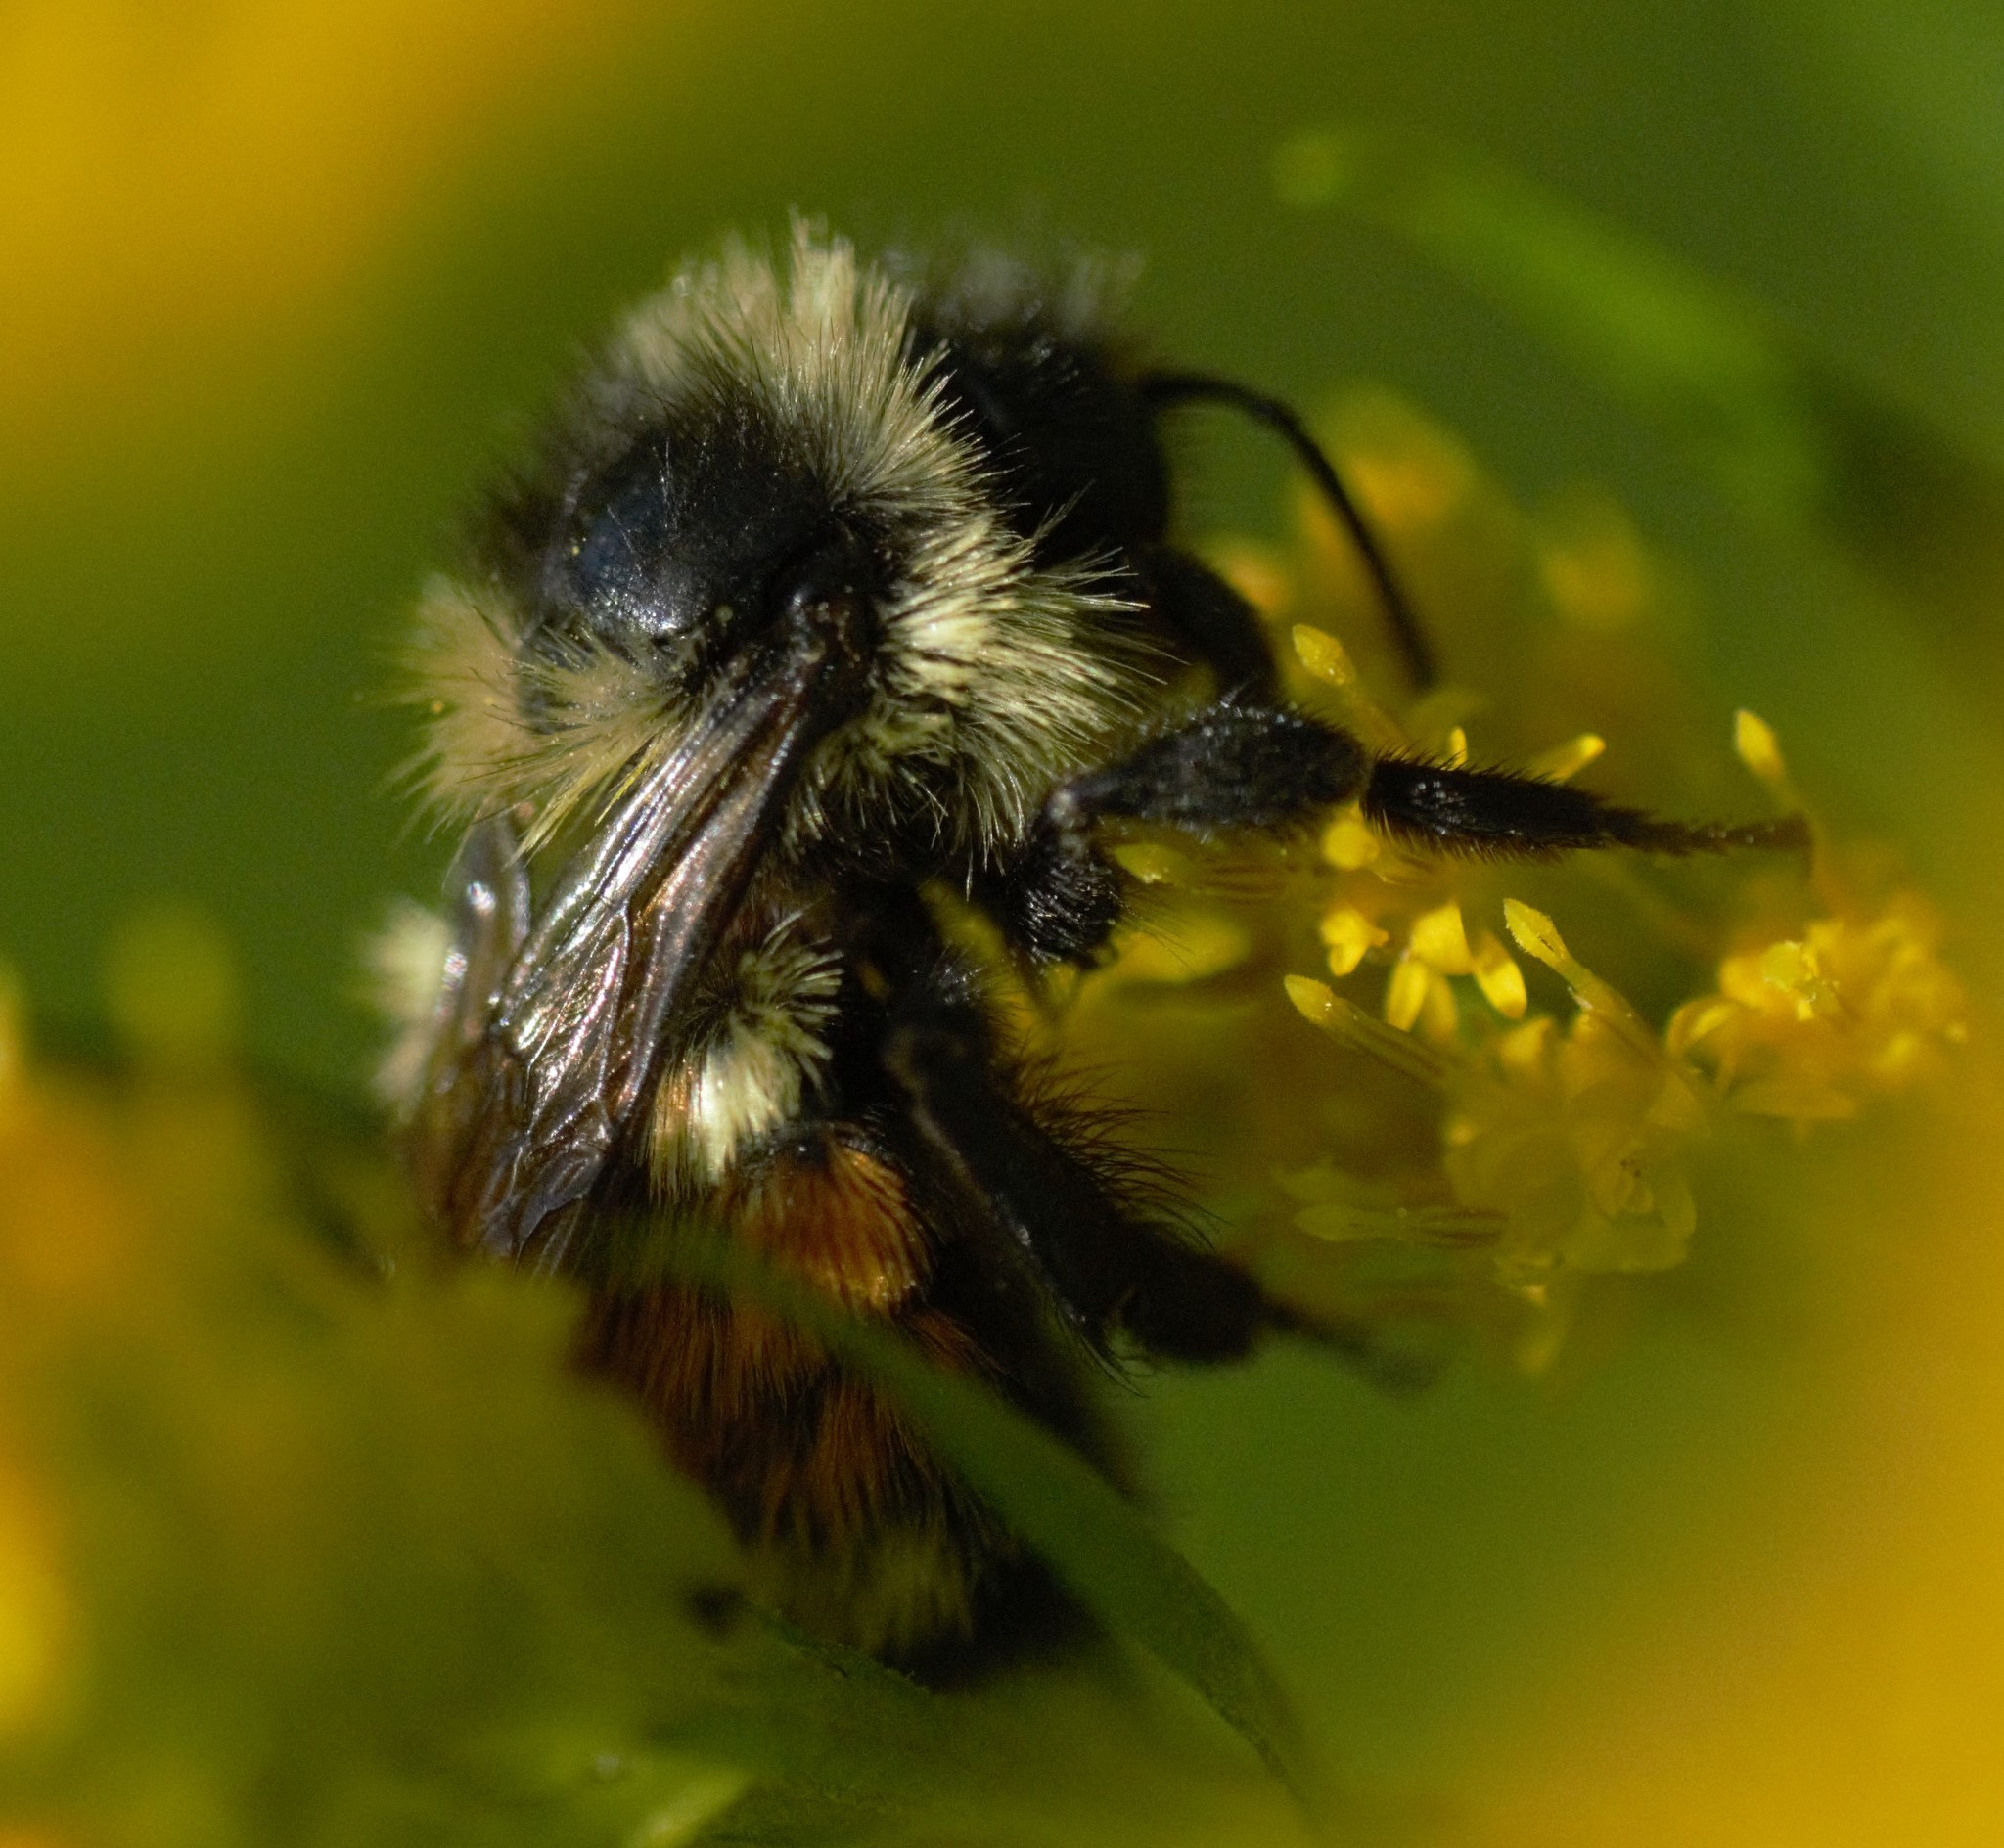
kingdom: Animalia
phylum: Arthropoda
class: Insecta
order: Hymenoptera
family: Apidae
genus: Bombus
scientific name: Bombus ternarius
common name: Tri-colored bumble bee
